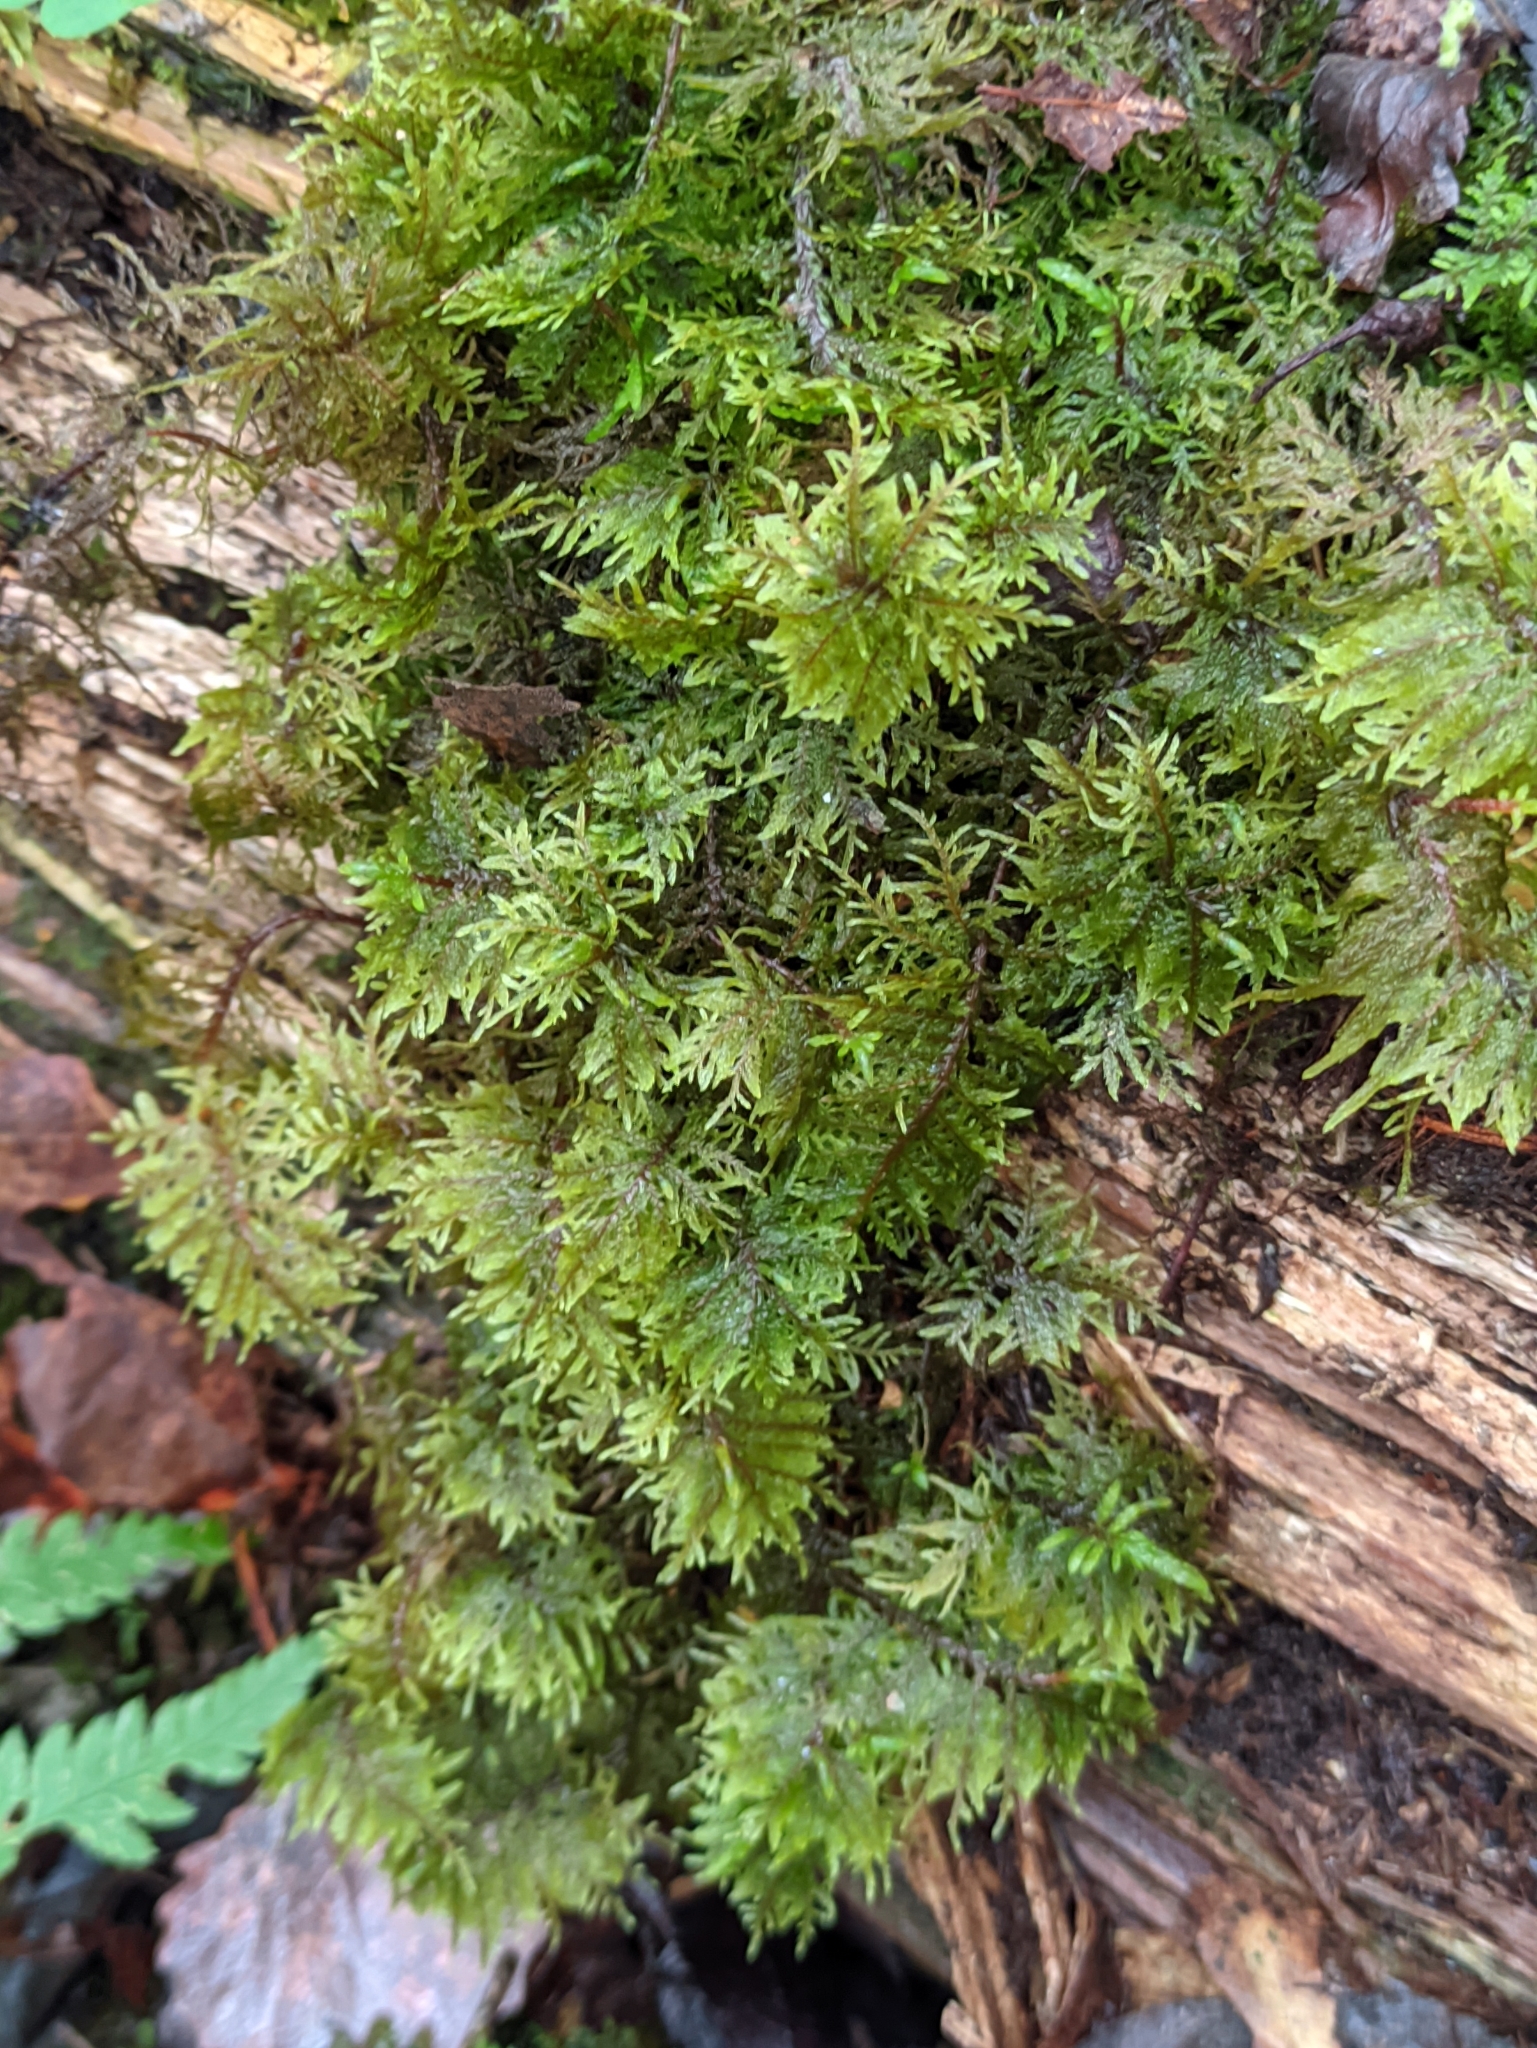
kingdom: Plantae
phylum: Bryophyta
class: Bryopsida
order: Hypnales
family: Hylocomiaceae
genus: Hylocomium
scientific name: Hylocomium splendens
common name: Stairstep moss
